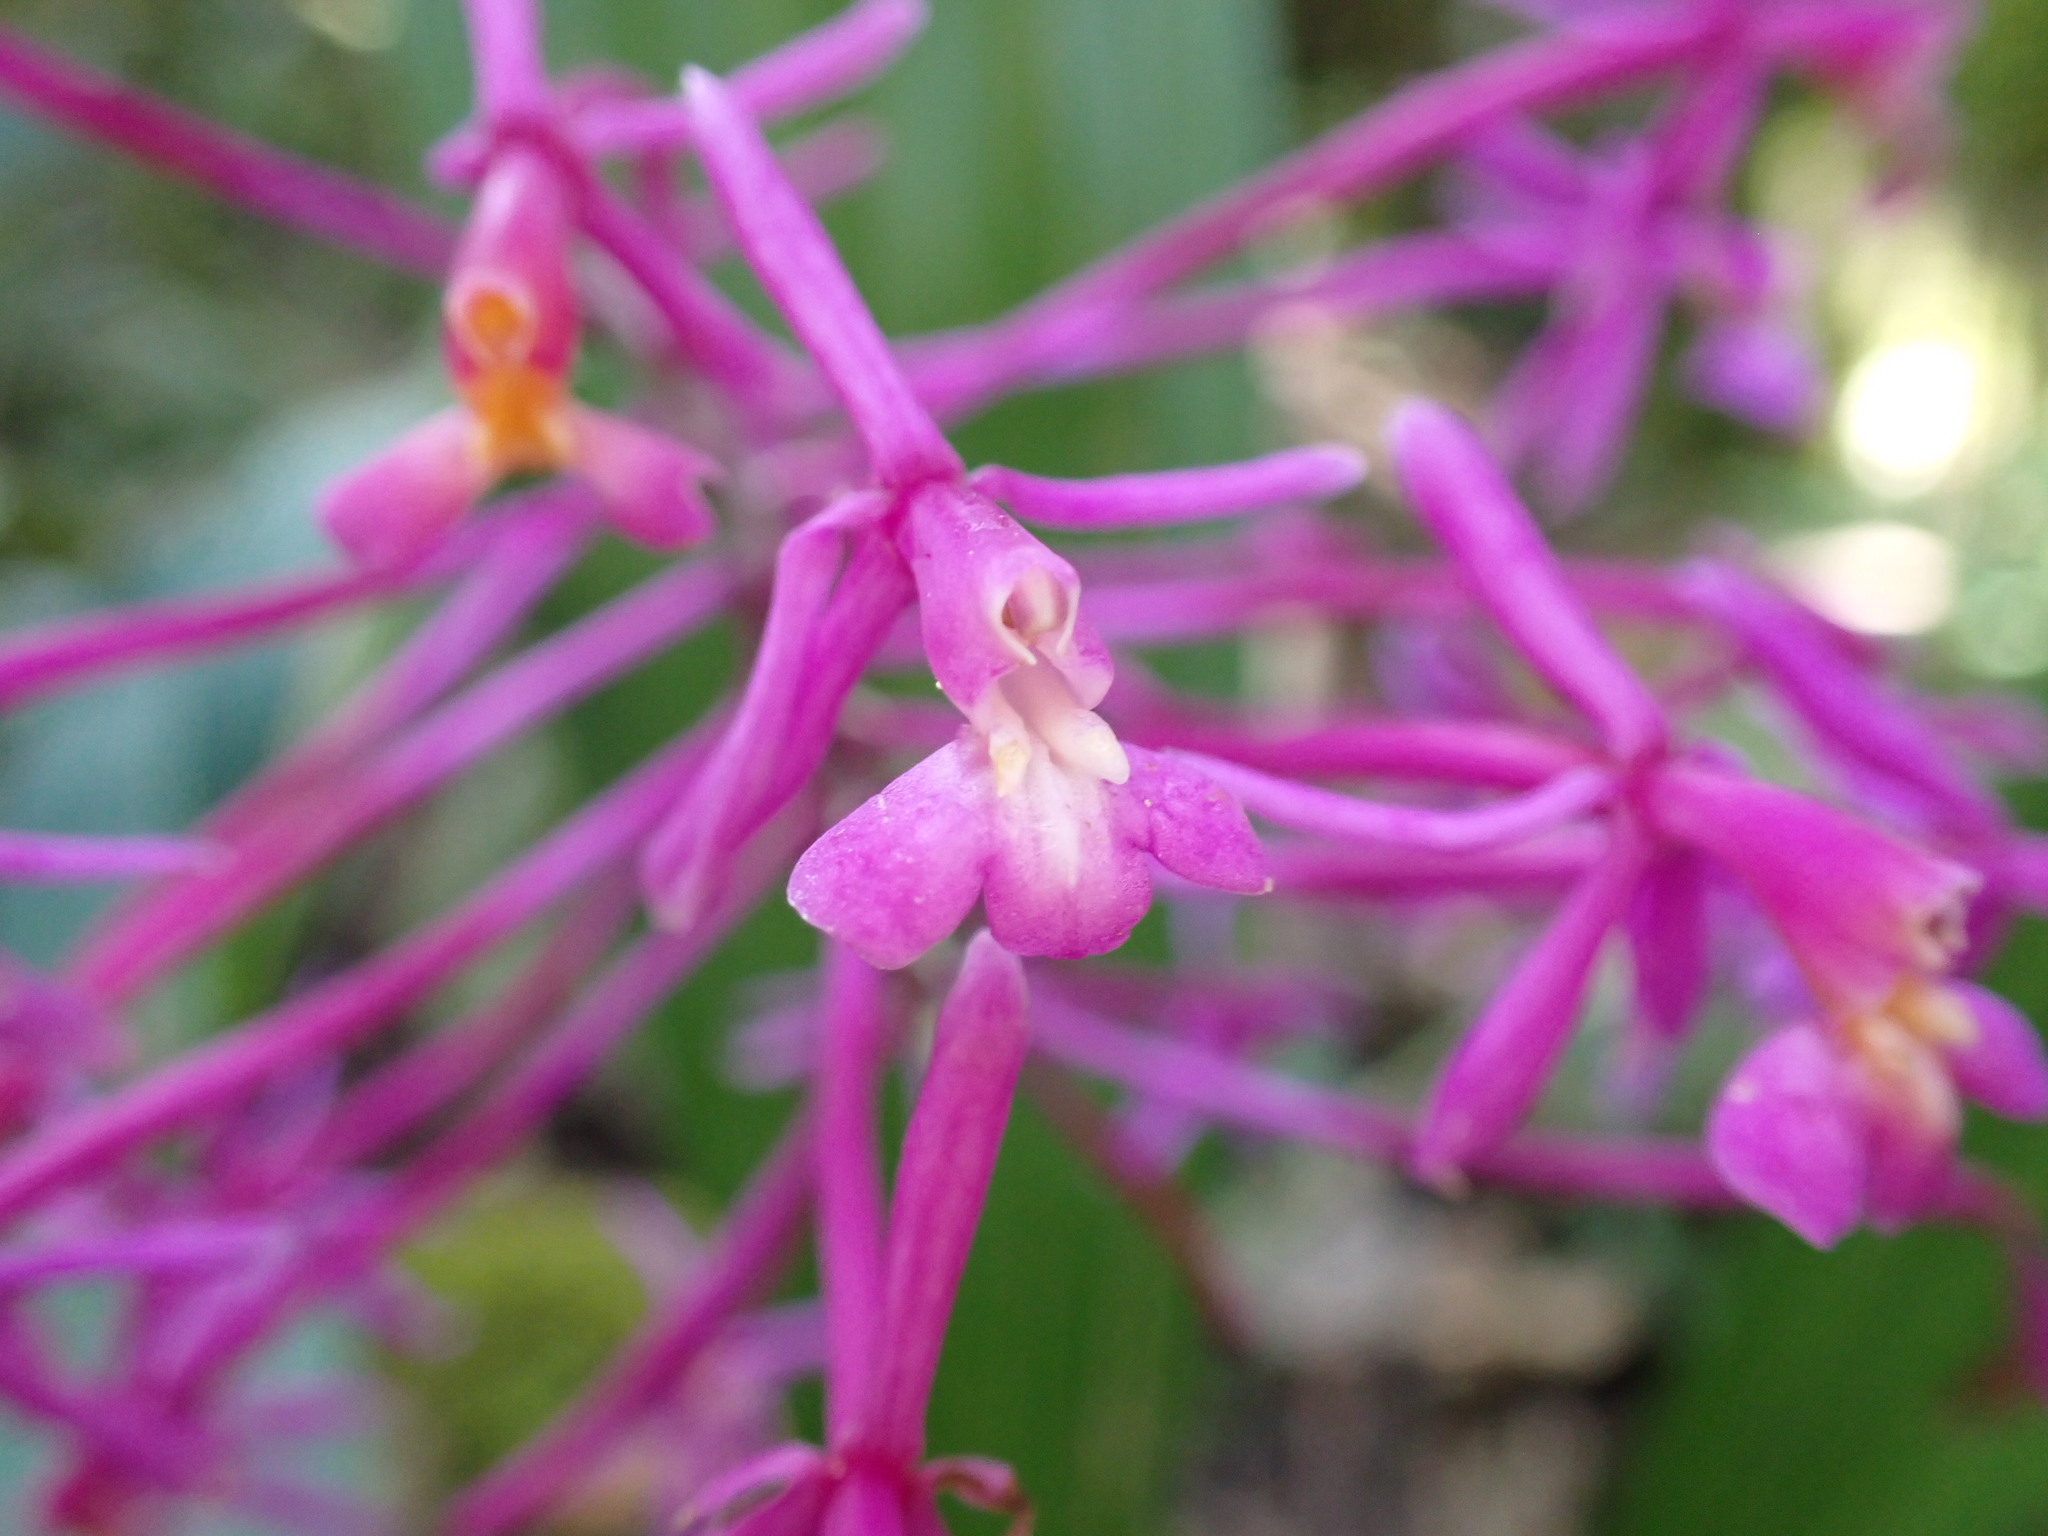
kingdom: Plantae
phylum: Tracheophyta
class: Liliopsida
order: Asparagales
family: Orchidaceae
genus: Epidendrum
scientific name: Epidendrum syringothyrsus
